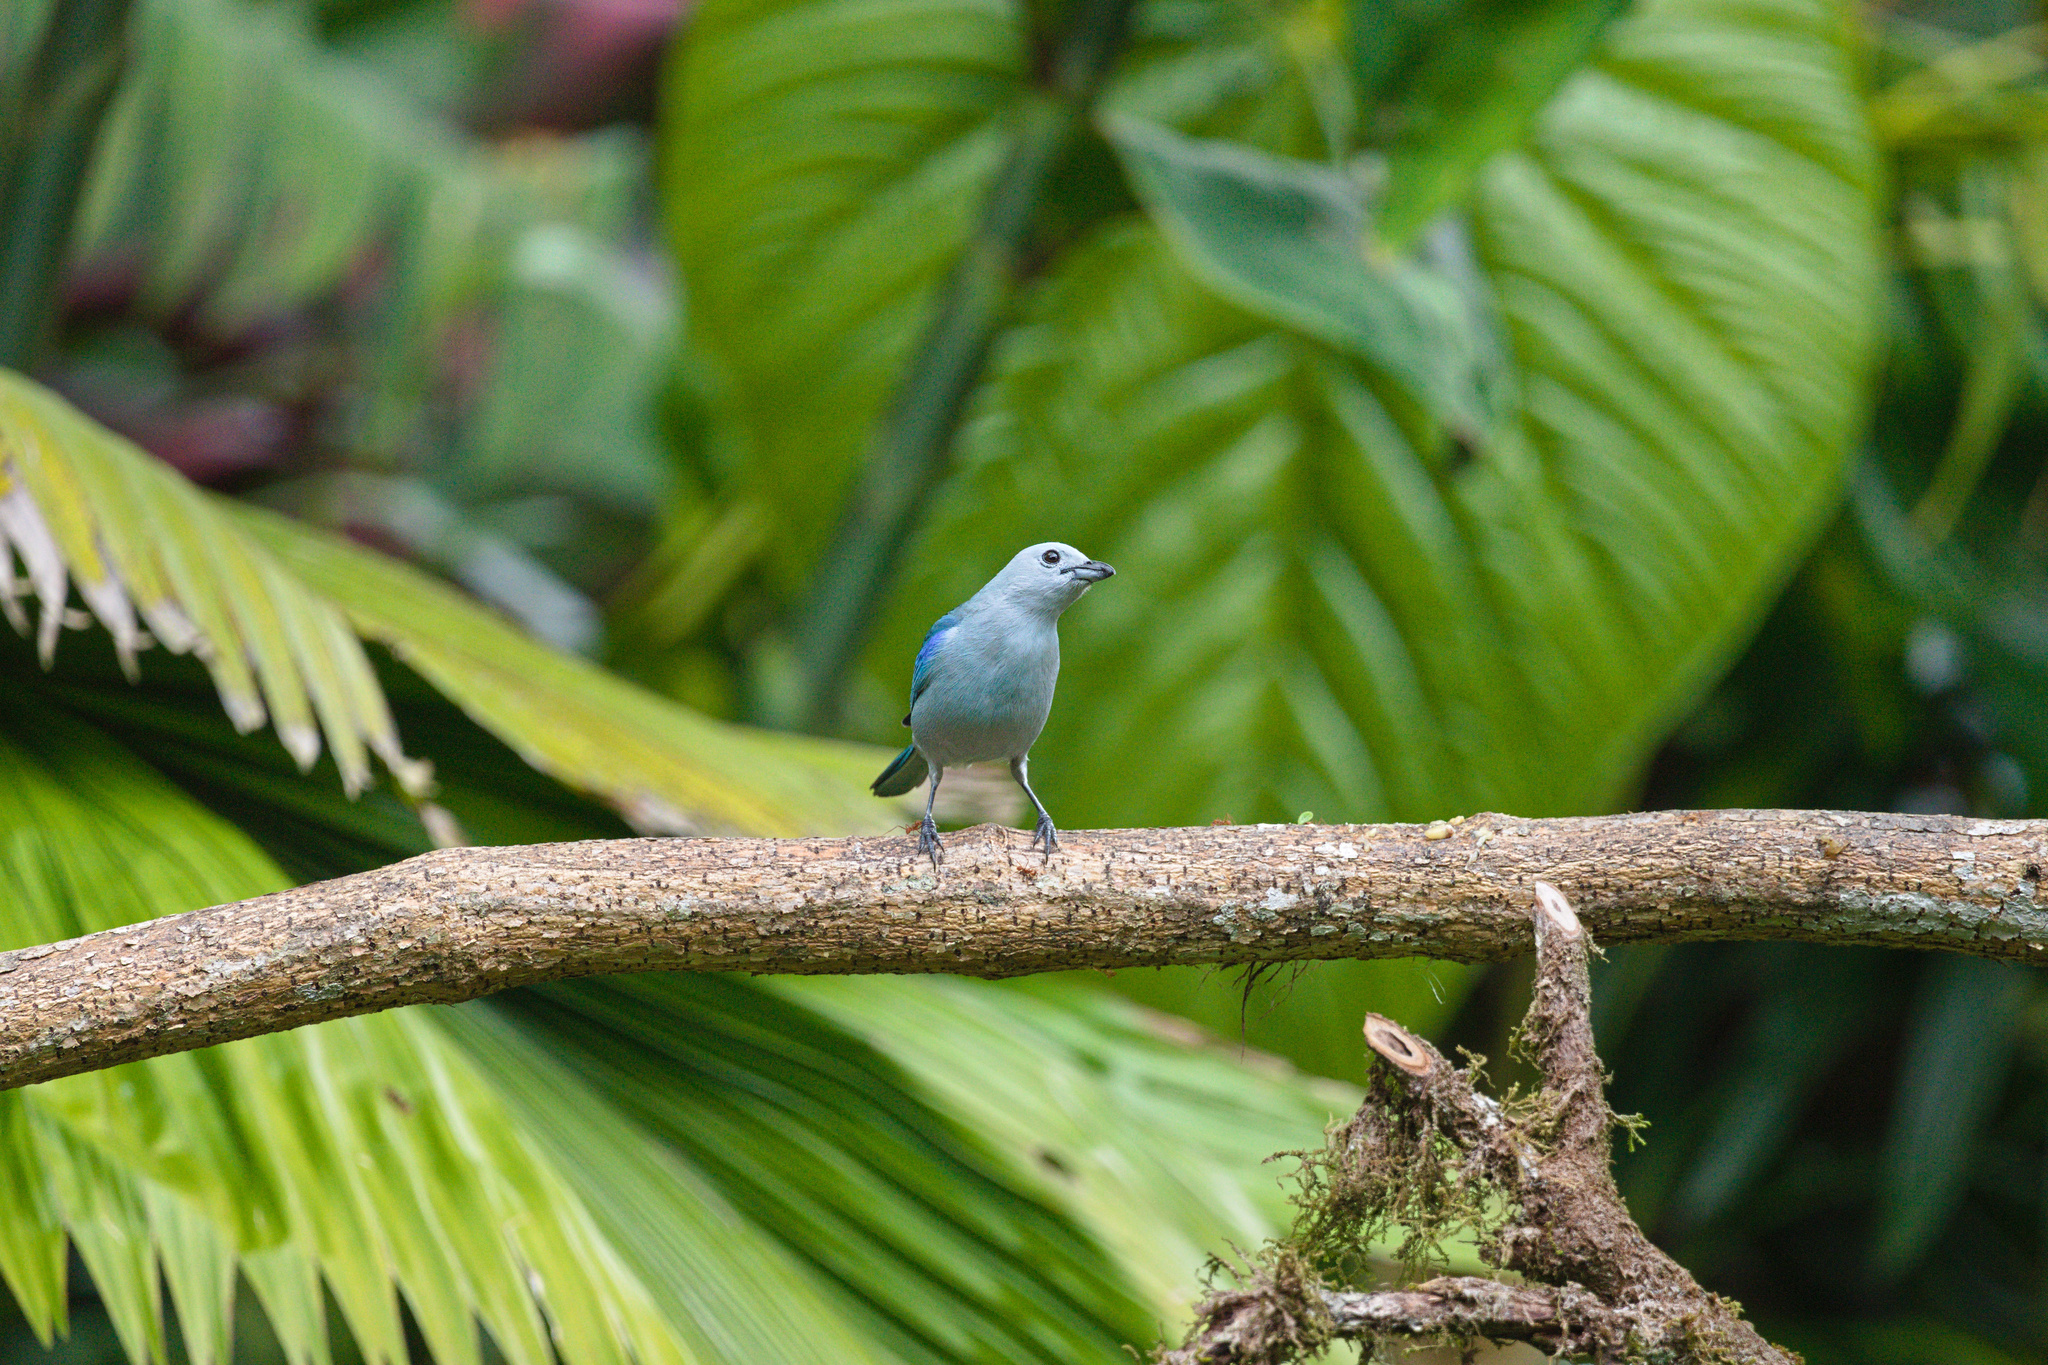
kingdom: Animalia
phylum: Chordata
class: Aves
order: Passeriformes
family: Thraupidae
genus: Thraupis
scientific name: Thraupis episcopus
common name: Blue-grey tanager
